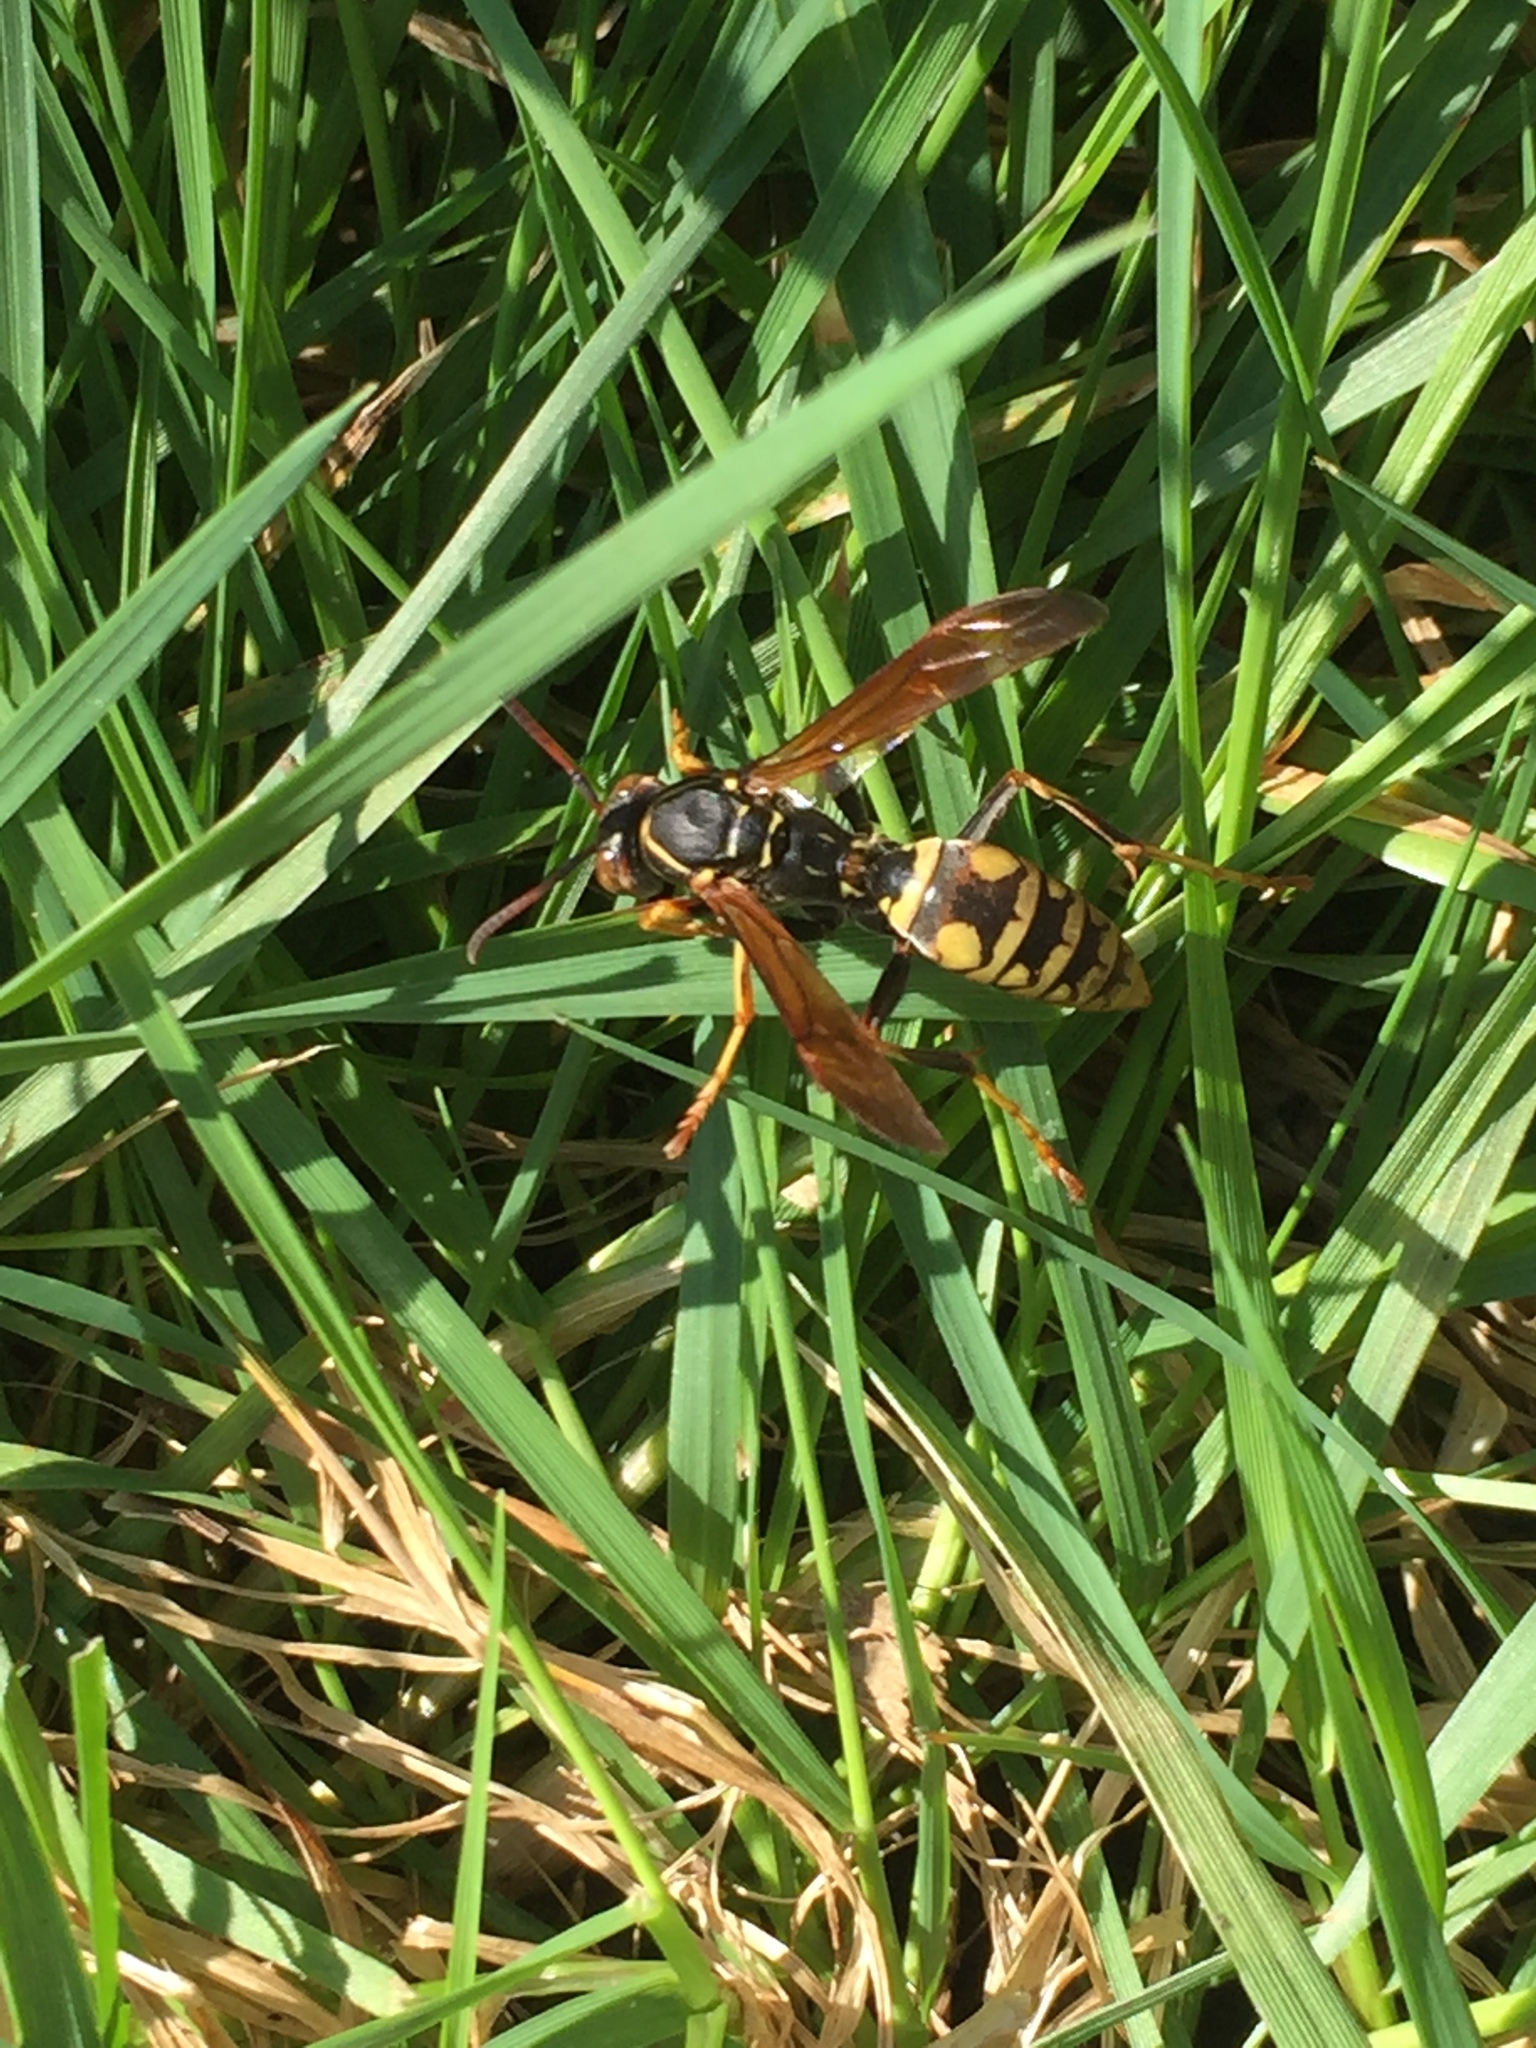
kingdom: Animalia
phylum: Arthropoda
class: Insecta
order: Hymenoptera
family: Eumenidae
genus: Polistes
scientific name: Polistes aurifer
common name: Paper wasp
